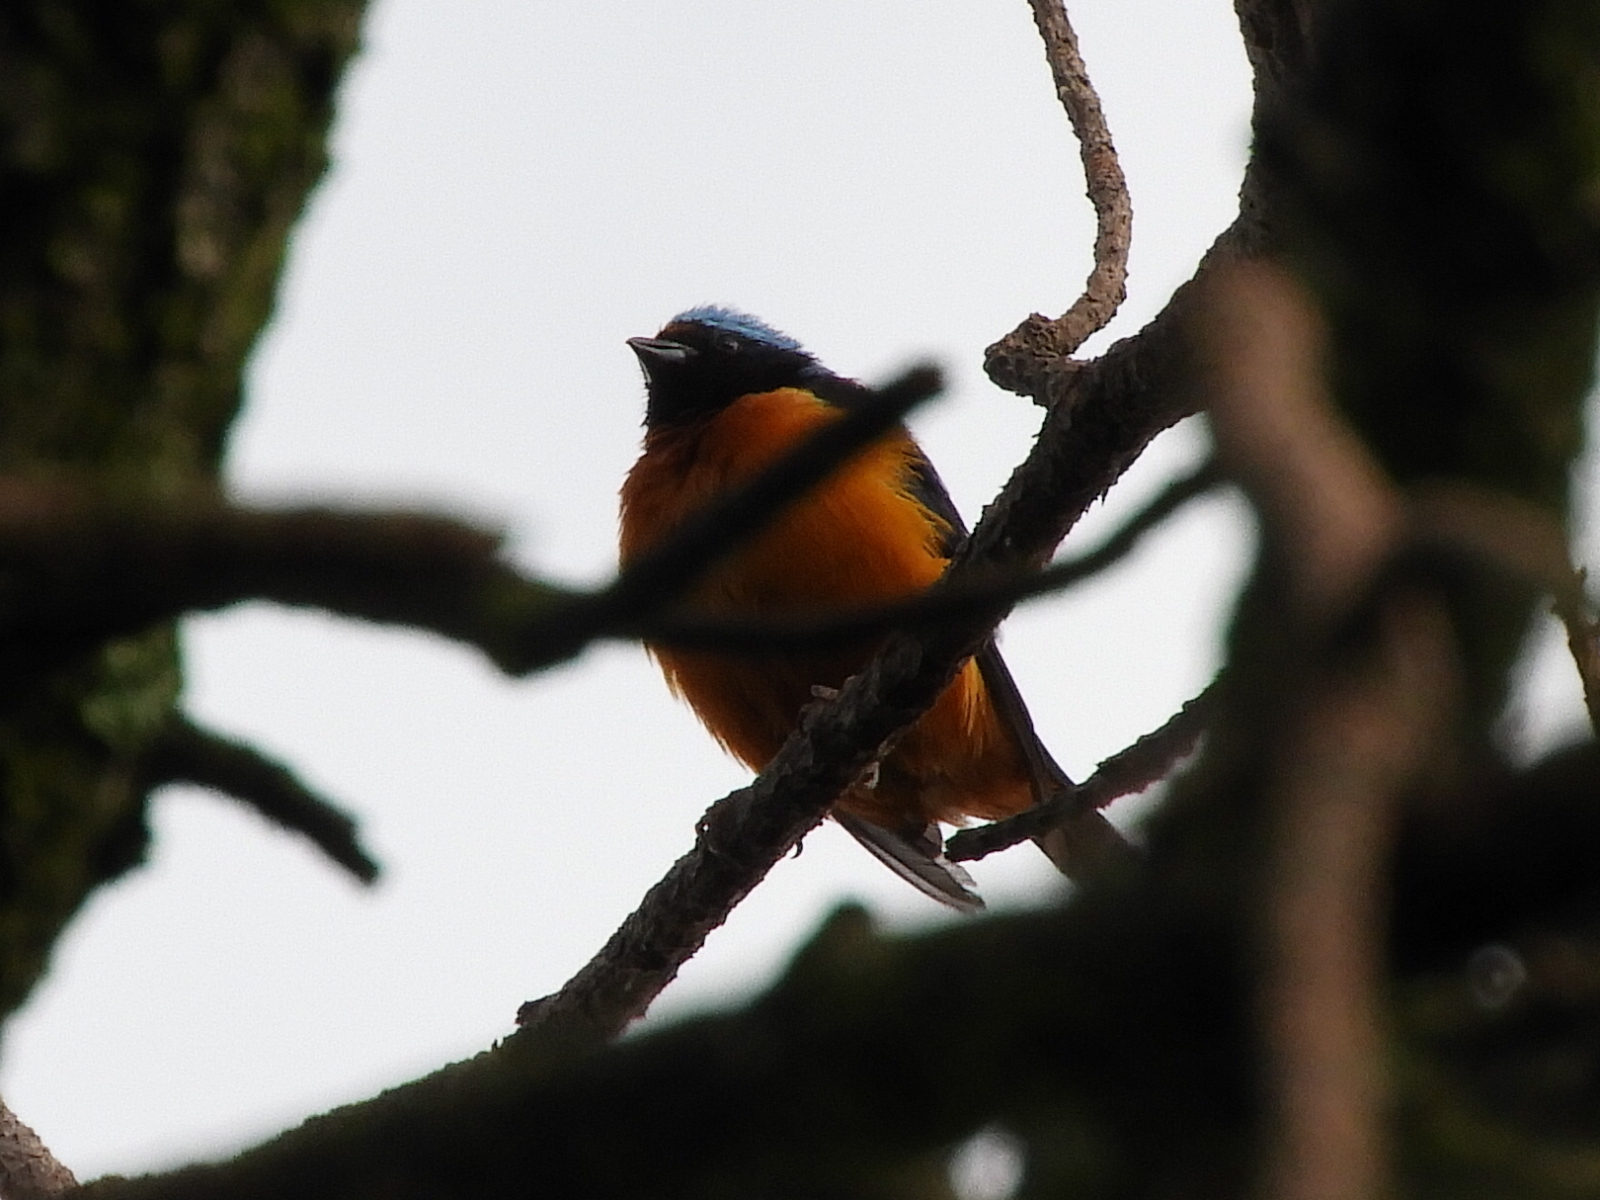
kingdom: Animalia
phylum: Chordata
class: Aves
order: Passeriformes
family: Fringillidae
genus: Euphonia
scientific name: Euphonia elegantissima
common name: Elegant euphonia
